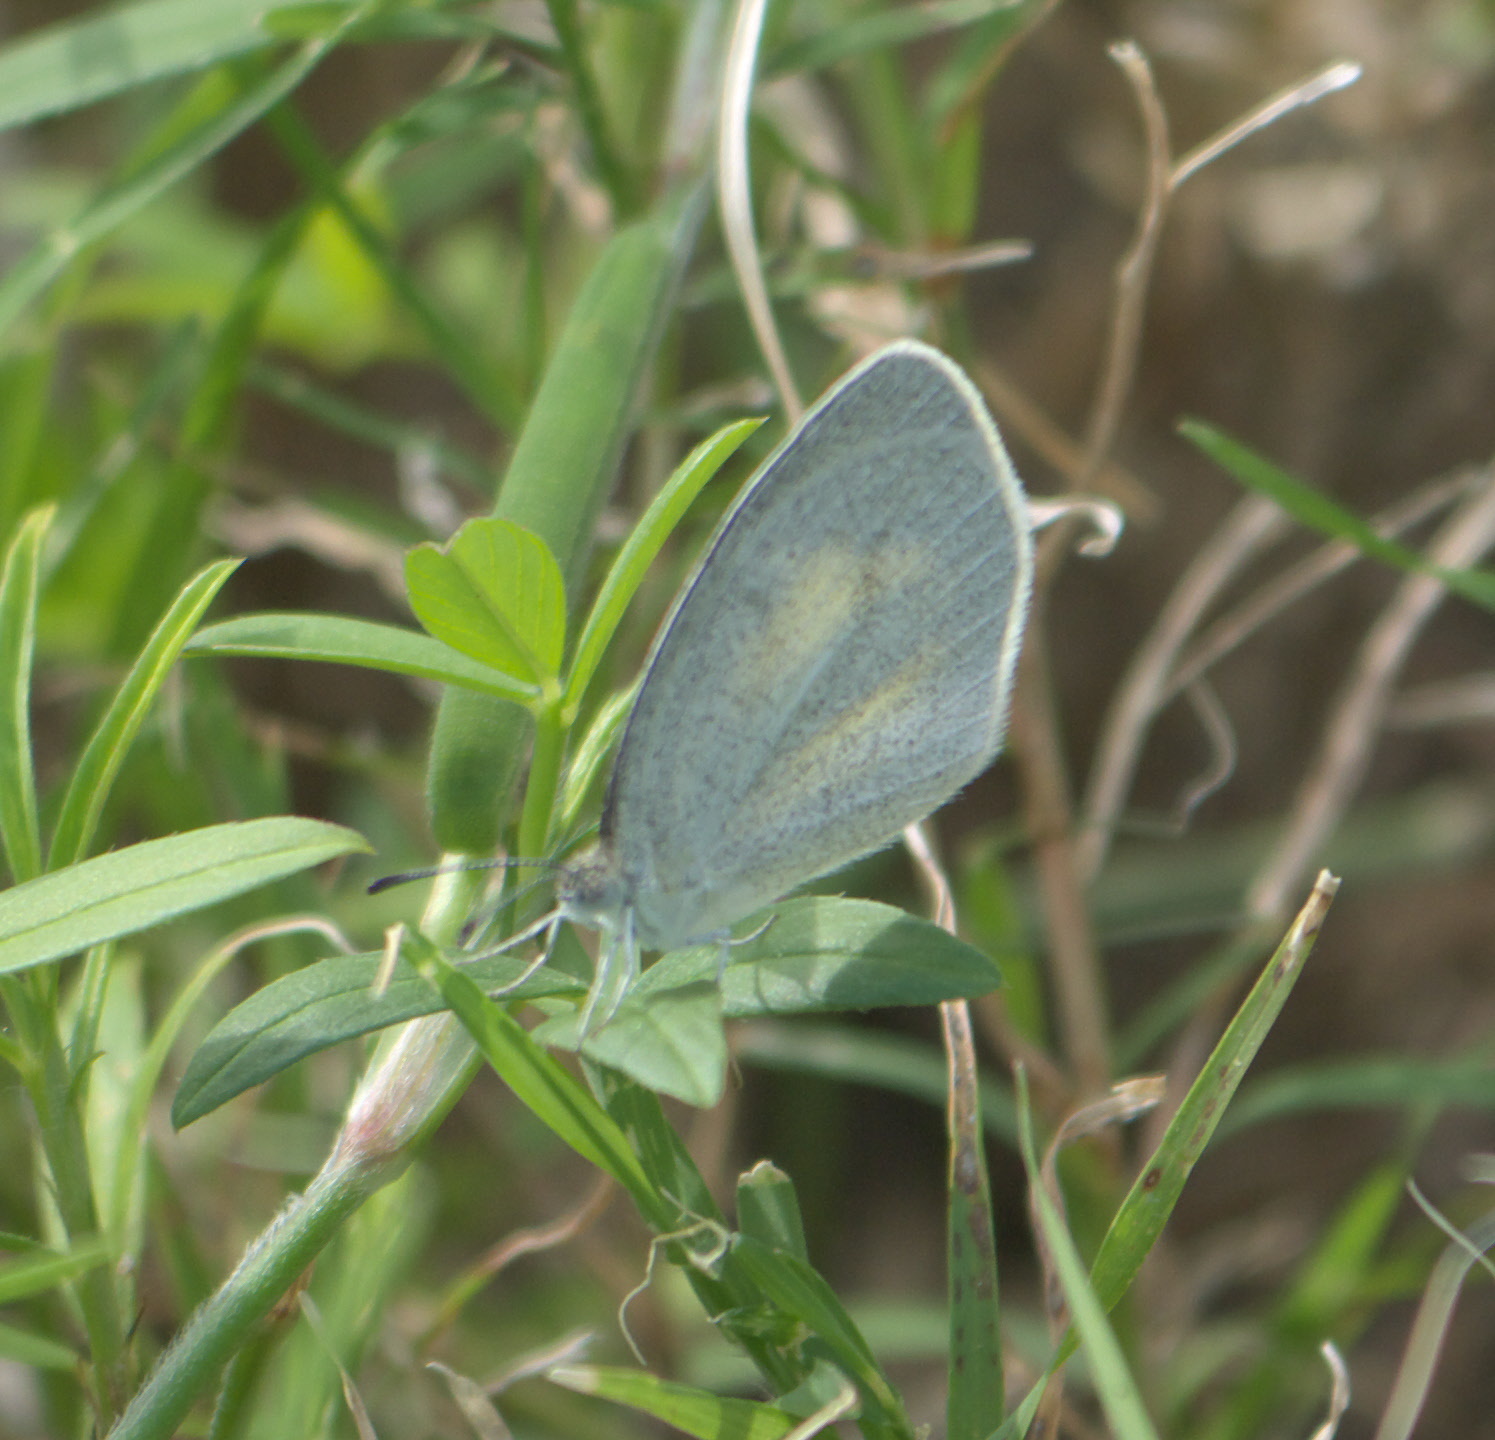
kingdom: Animalia
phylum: Arthropoda
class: Insecta
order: Lepidoptera
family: Pieridae
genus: Eurema
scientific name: Eurema daira
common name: Barred sulphur
